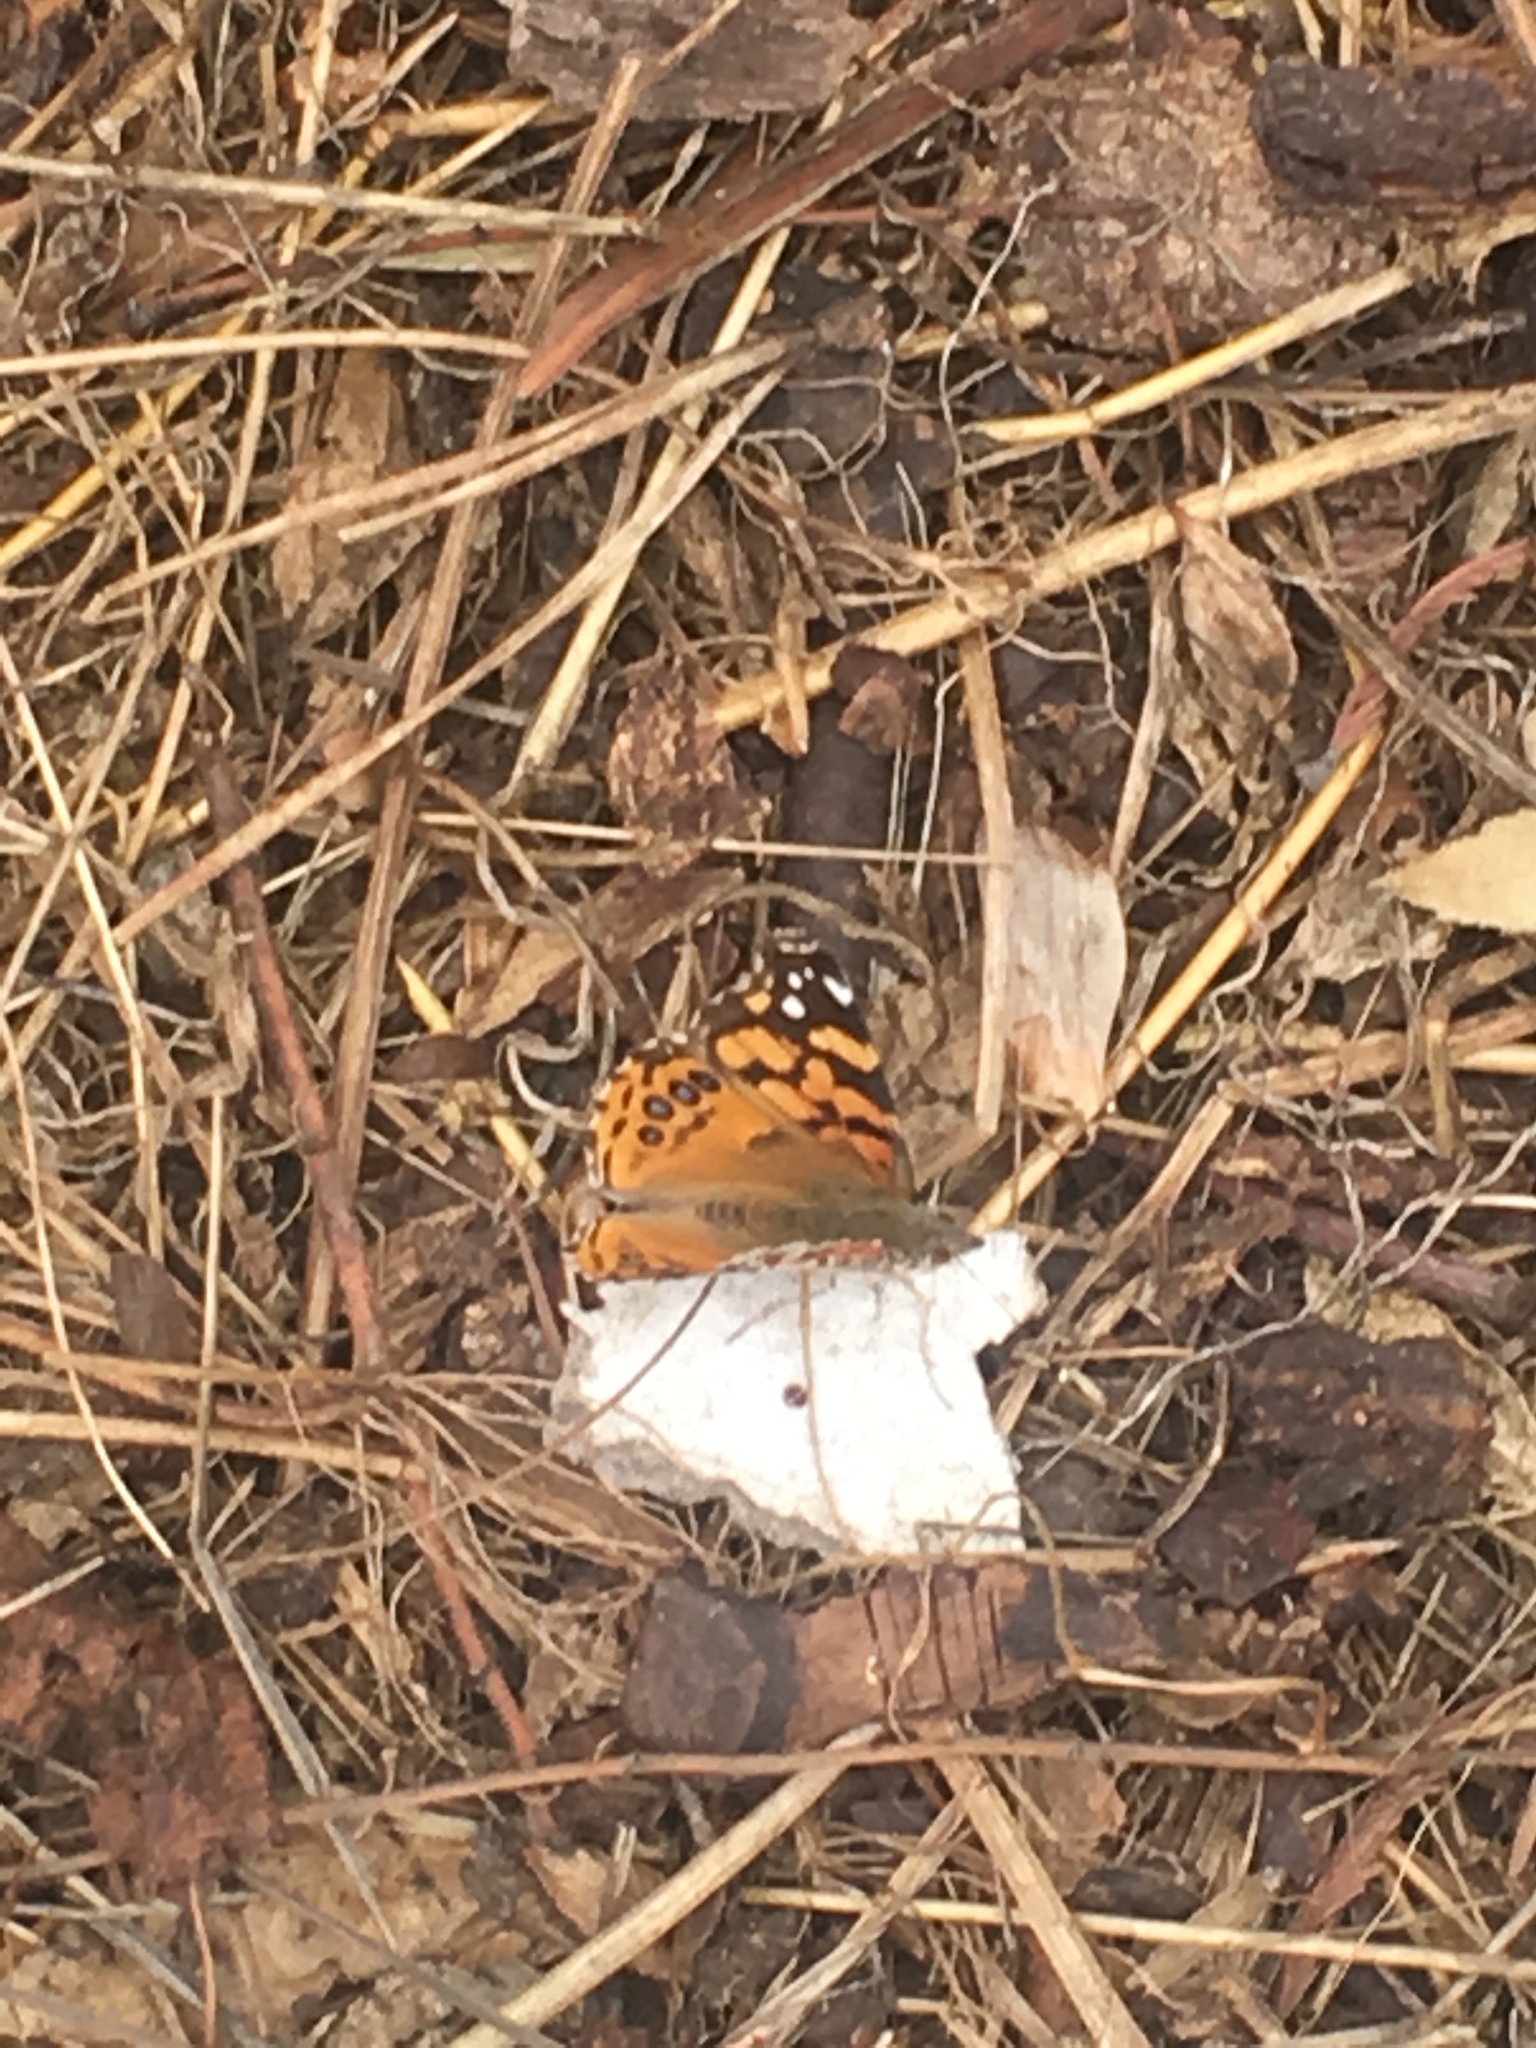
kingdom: Animalia
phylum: Arthropoda
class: Insecta
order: Lepidoptera
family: Nymphalidae
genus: Vanessa
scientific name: Vanessa annabella
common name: West coast lady
